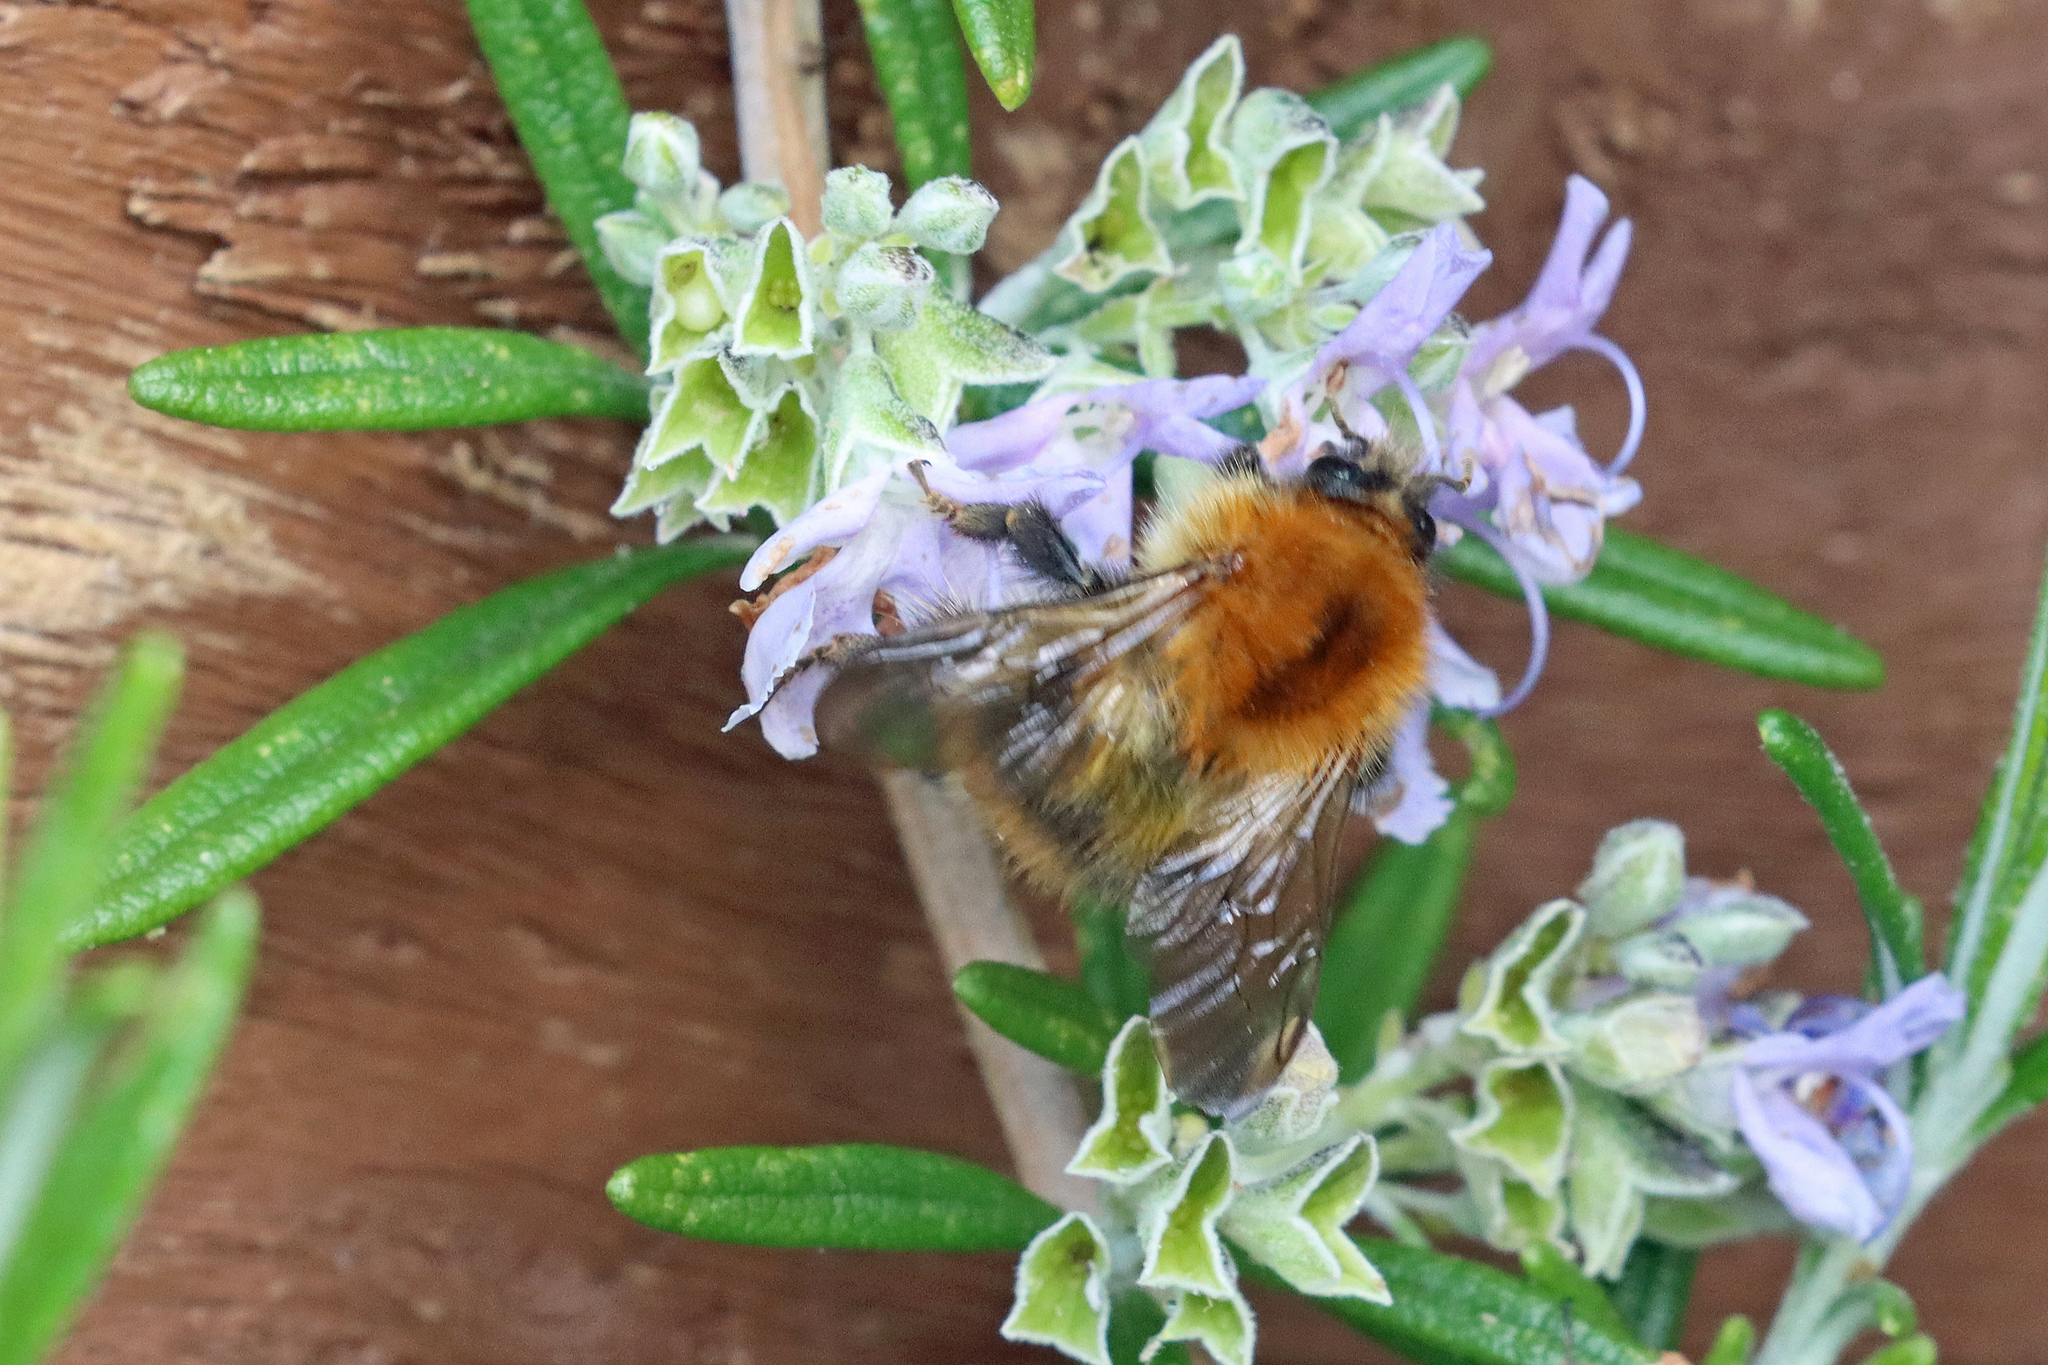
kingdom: Animalia
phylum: Arthropoda
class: Insecta
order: Hymenoptera
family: Apidae
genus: Bombus
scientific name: Bombus pascuorum
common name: Common carder bee
